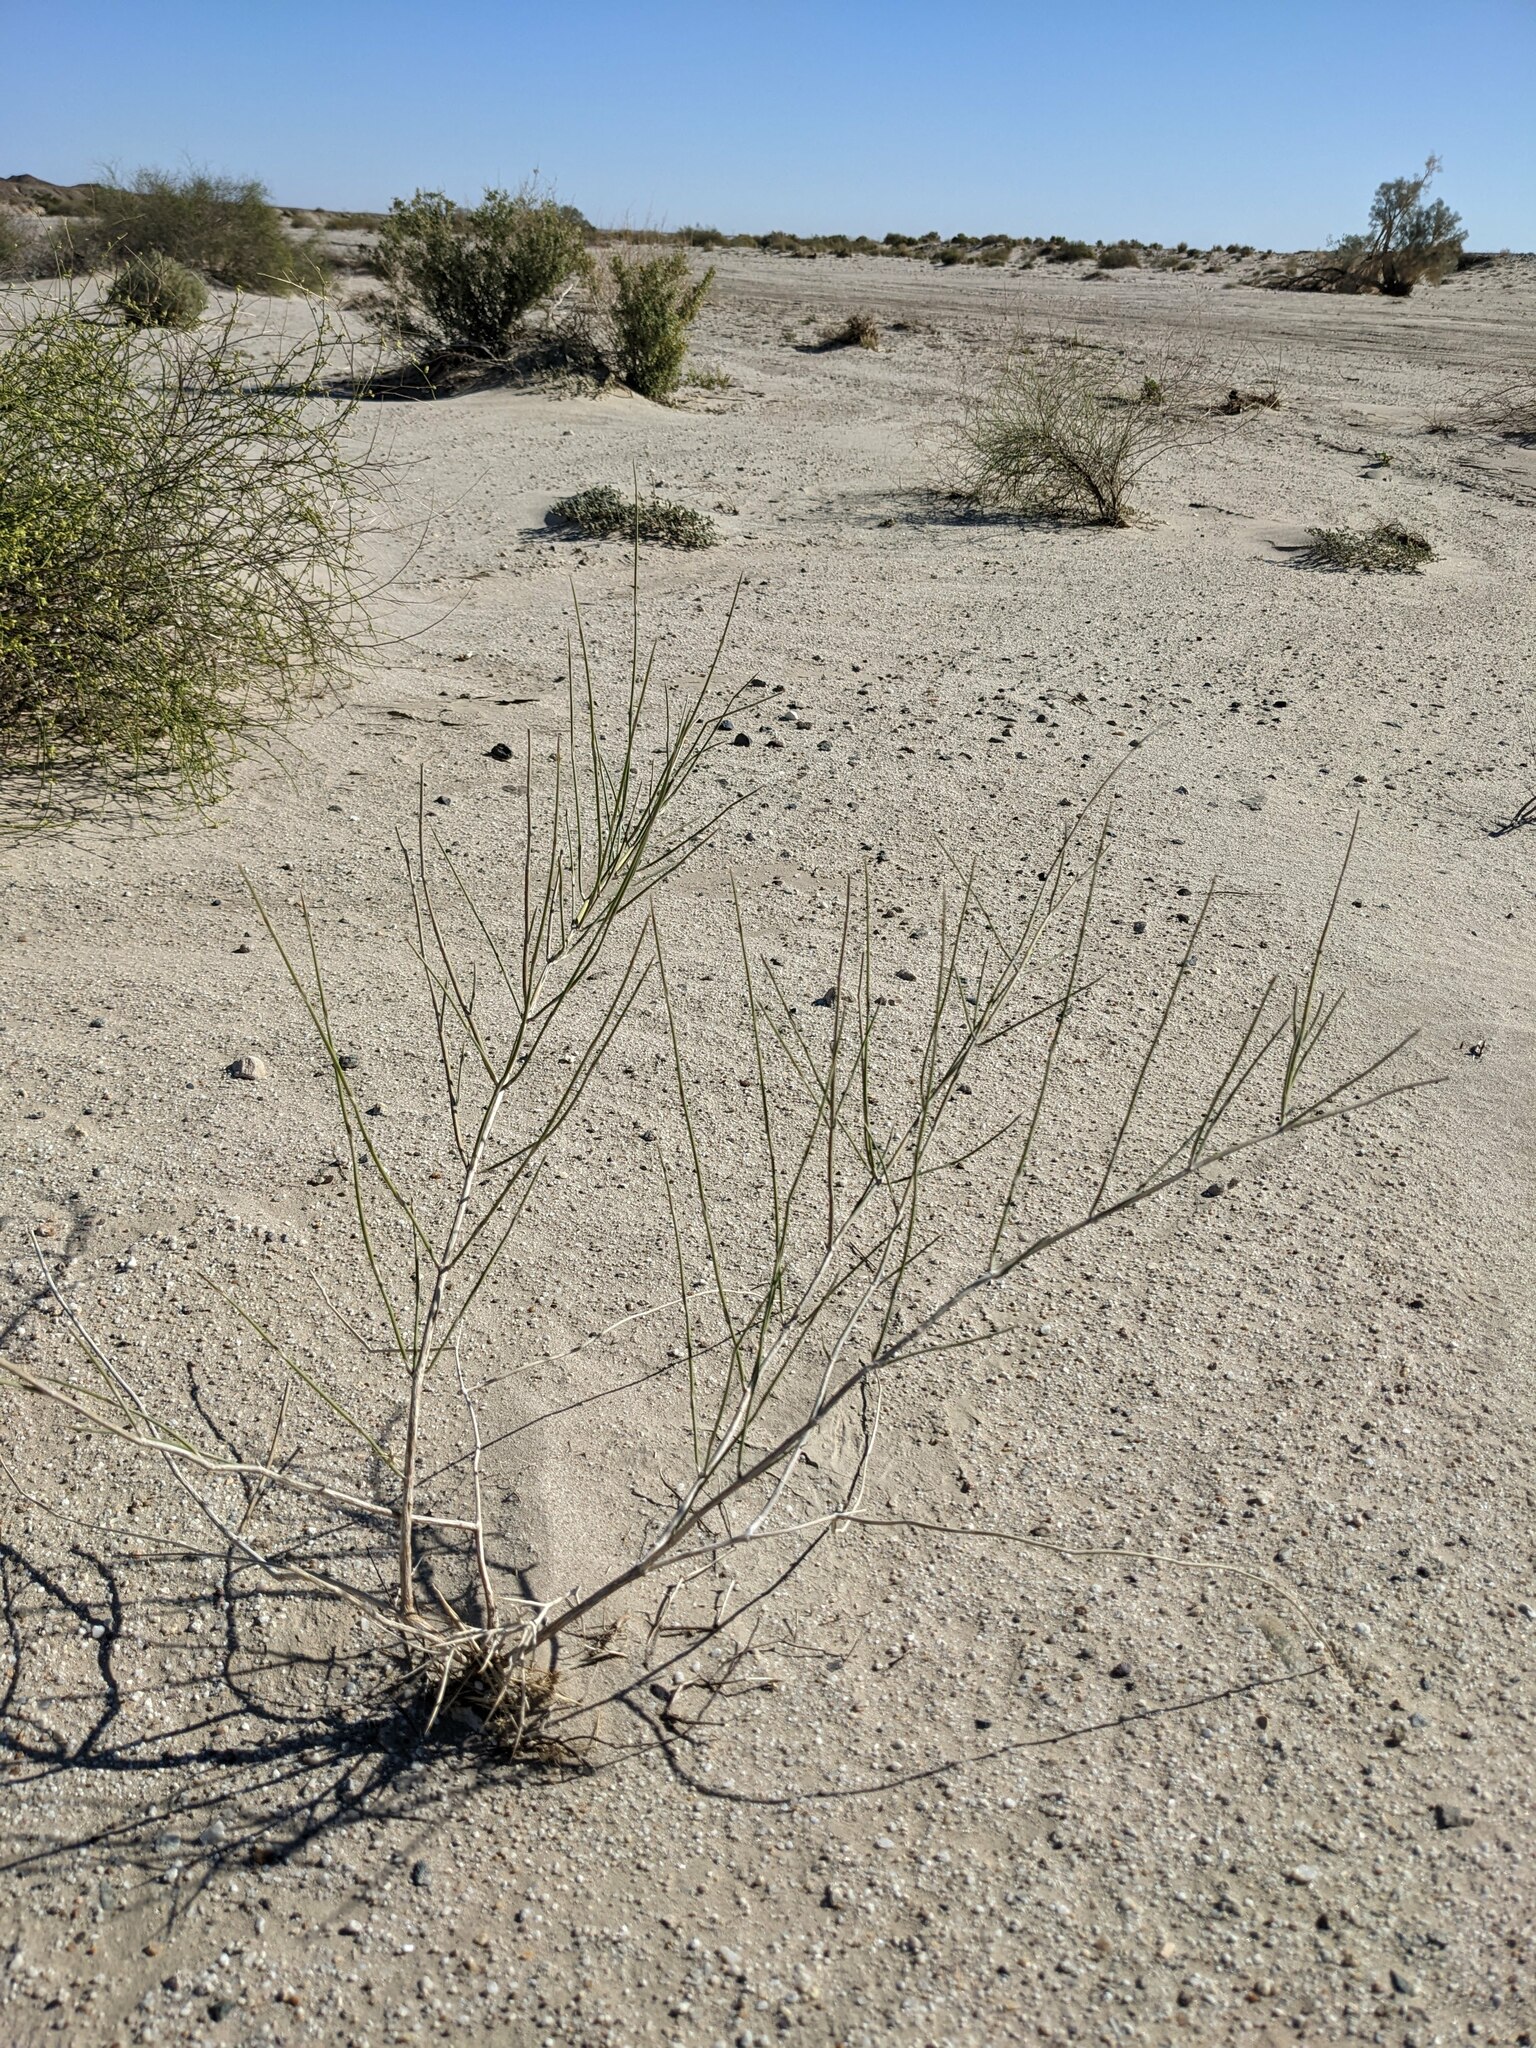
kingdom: Plantae
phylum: Tracheophyta
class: Gnetopsida
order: Ephedrales
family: Ephedraceae
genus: Ephedra
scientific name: Ephedra trifurca
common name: Mexican-tea
